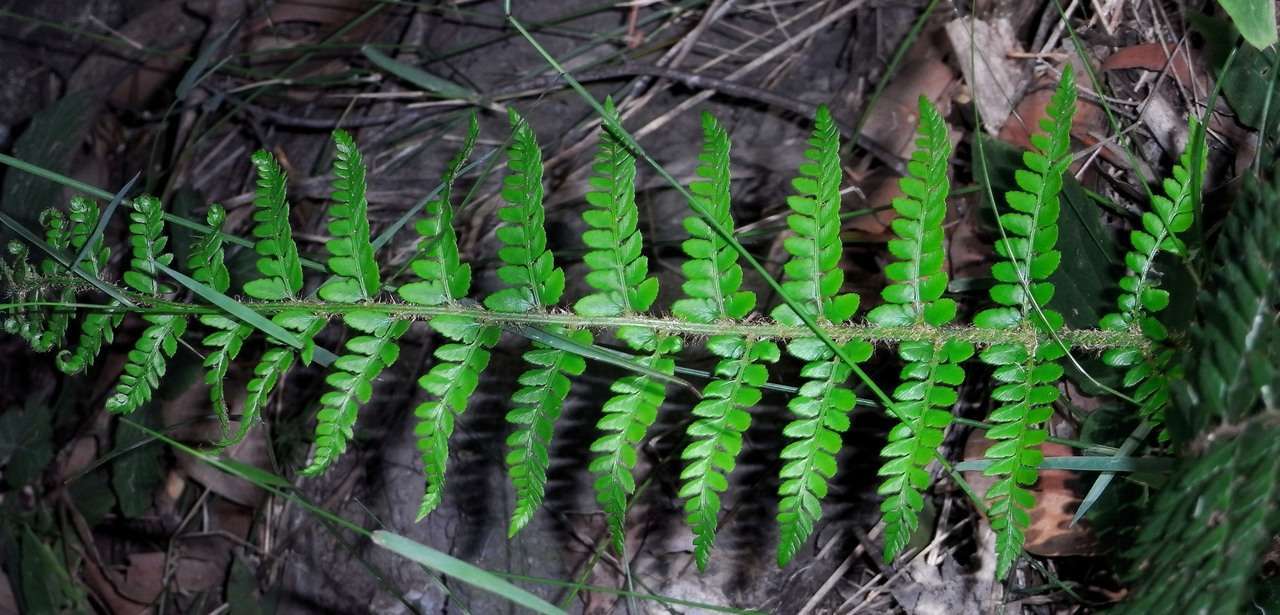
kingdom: Plantae
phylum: Tracheophyta
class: Polypodiopsida
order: Polypodiales
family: Dryopteridaceae
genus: Polystichum
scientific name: Polystichum proliferum
